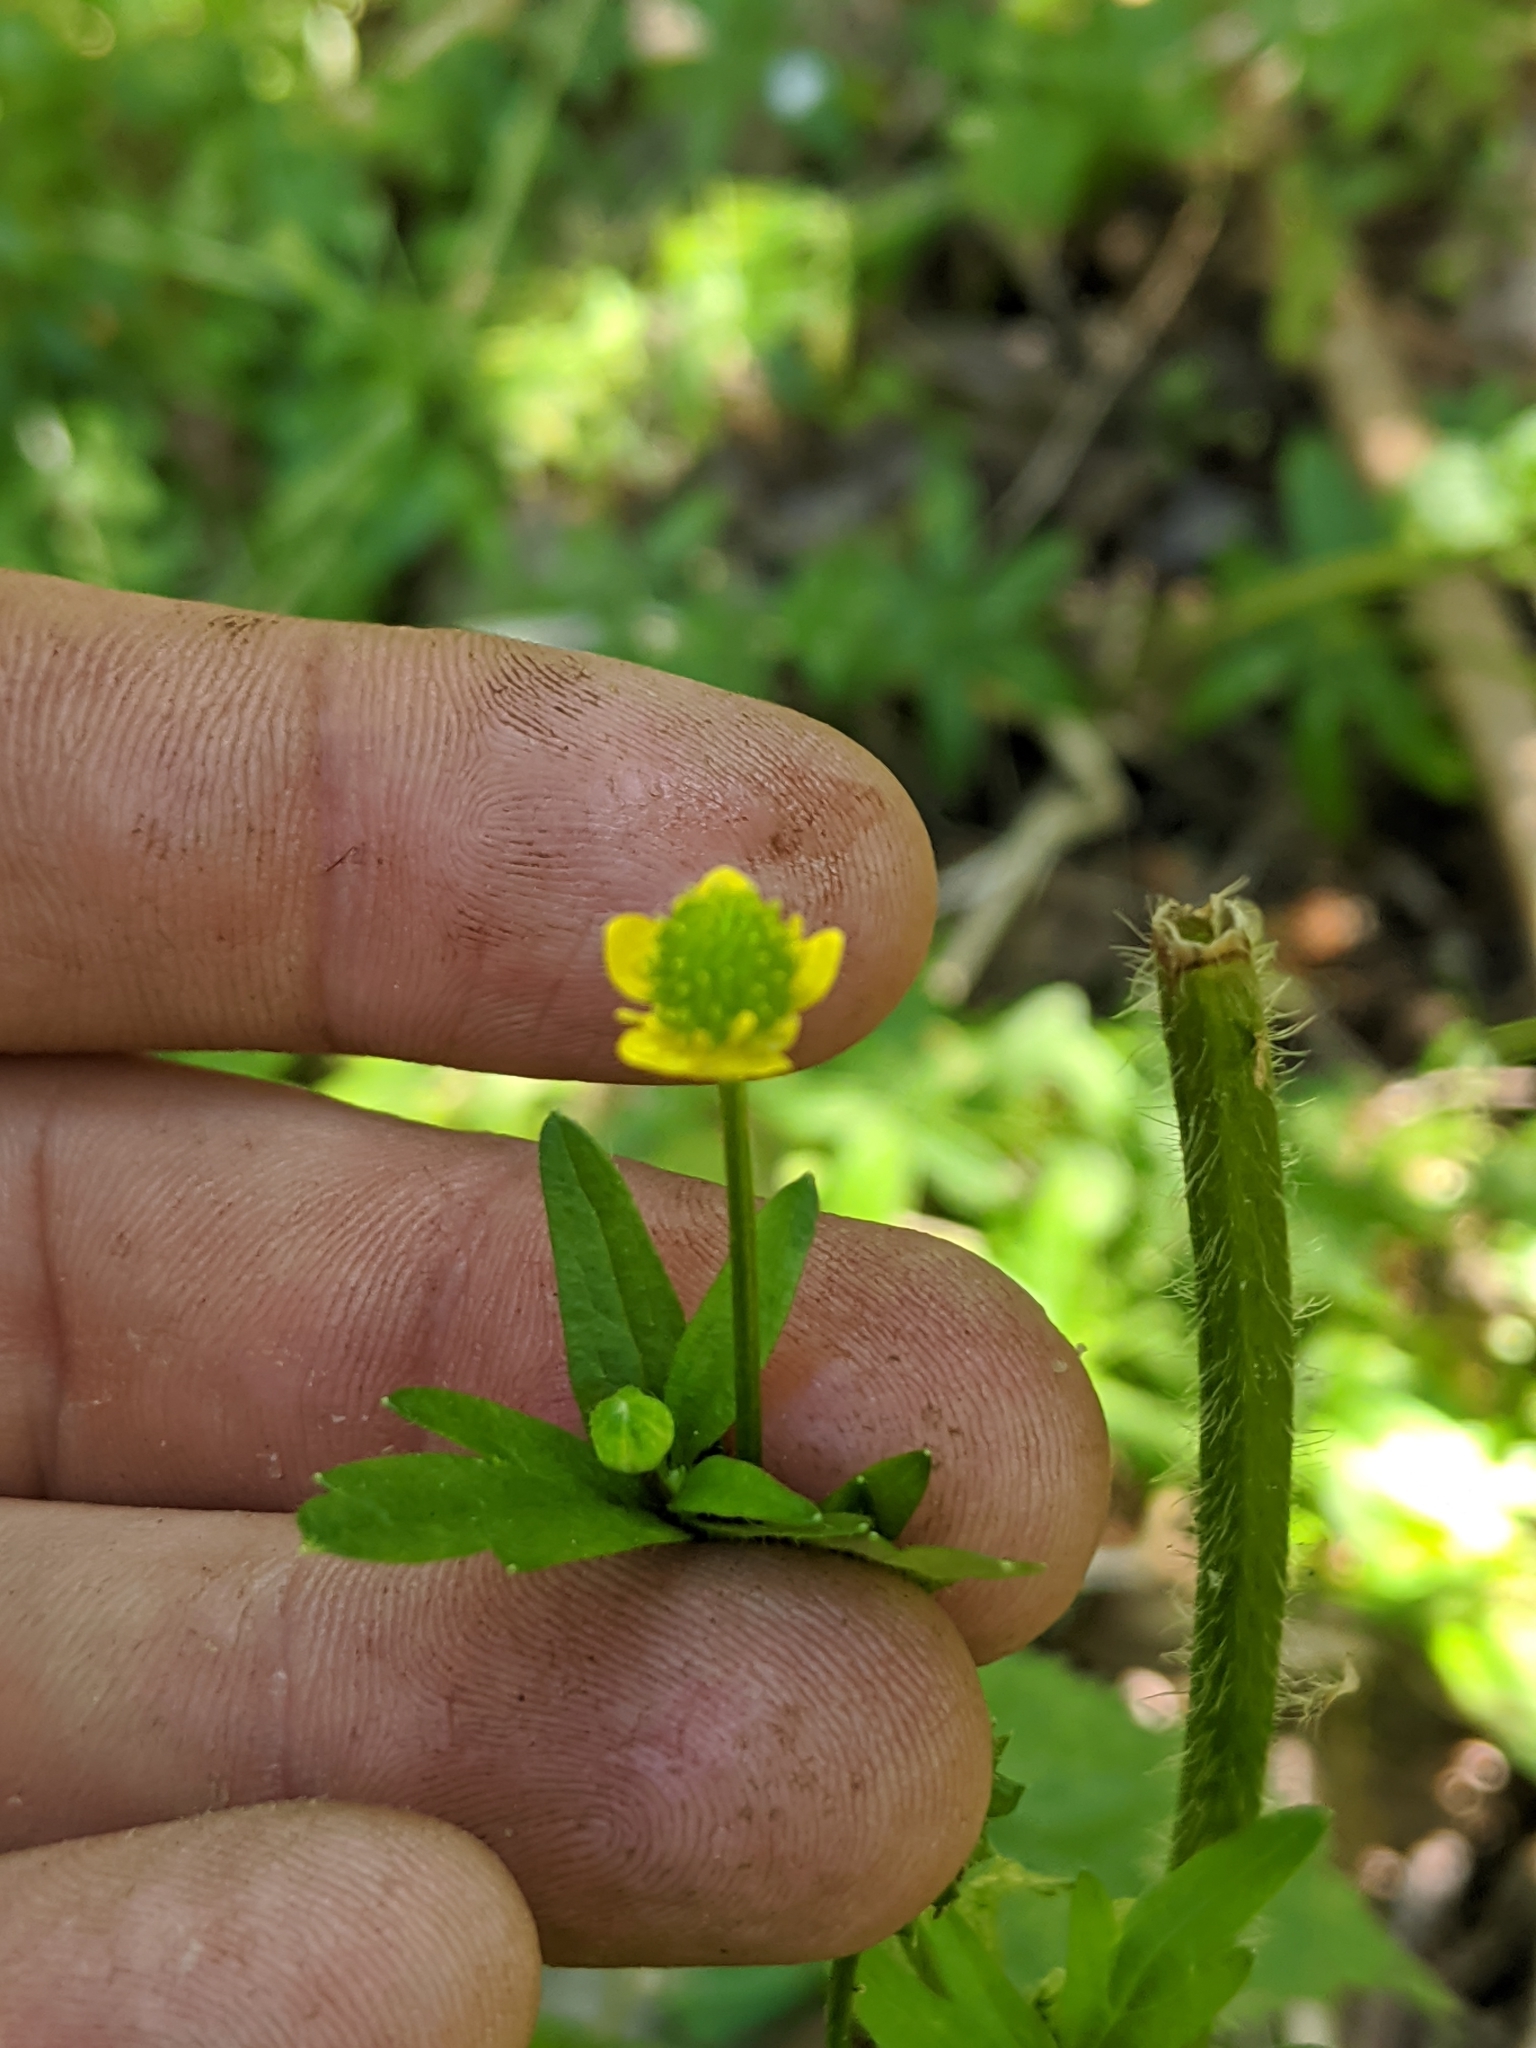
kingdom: Plantae
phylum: Tracheophyta
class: Magnoliopsida
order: Ranunculales
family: Ranunculaceae
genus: Ranunculus
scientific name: Ranunculus sceleratus
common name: Celery-leaved buttercup
